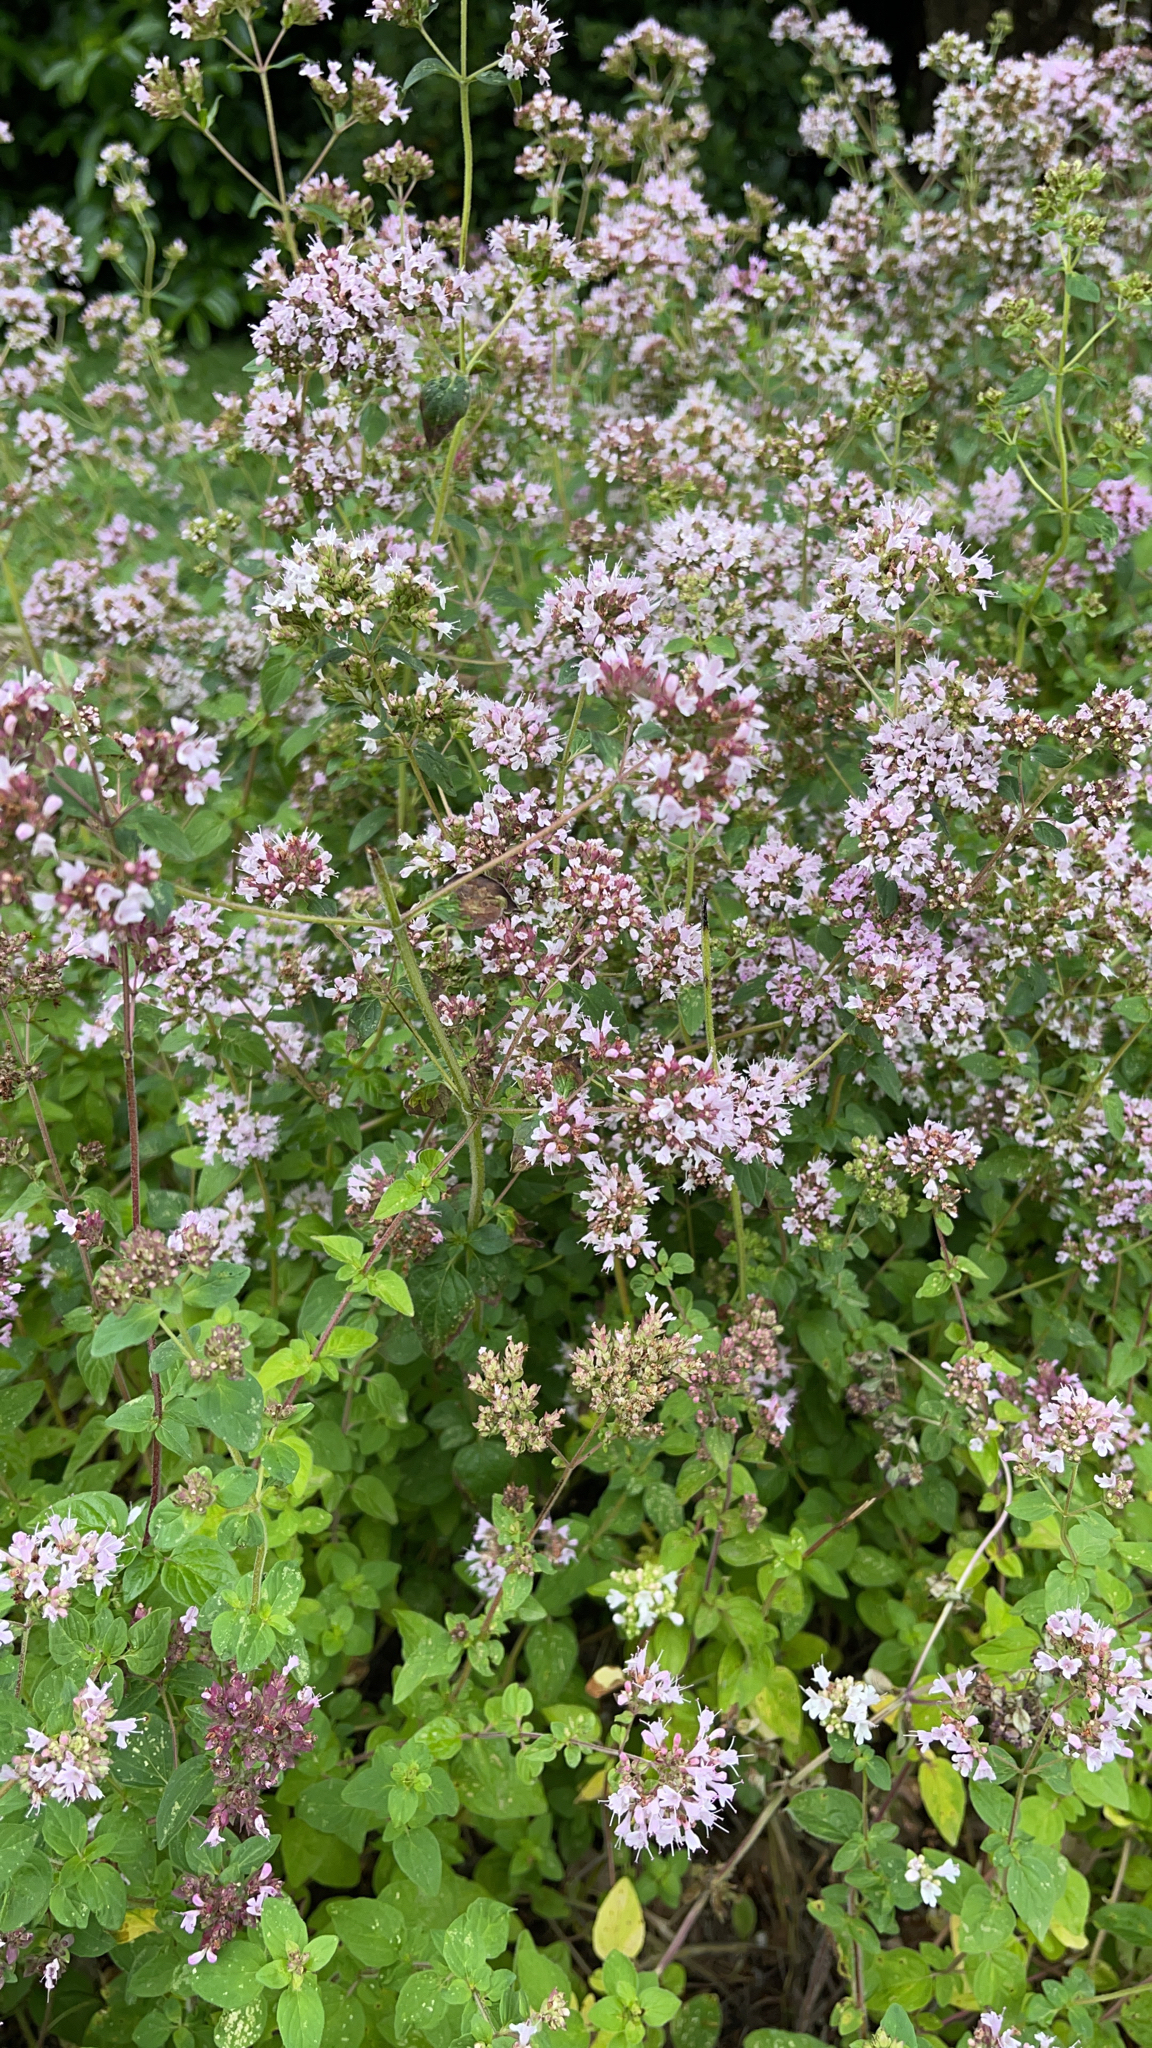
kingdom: Plantae
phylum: Tracheophyta
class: Magnoliopsida
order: Lamiales
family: Lamiaceae
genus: Origanum
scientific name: Origanum vulgare
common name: Wild marjoram
